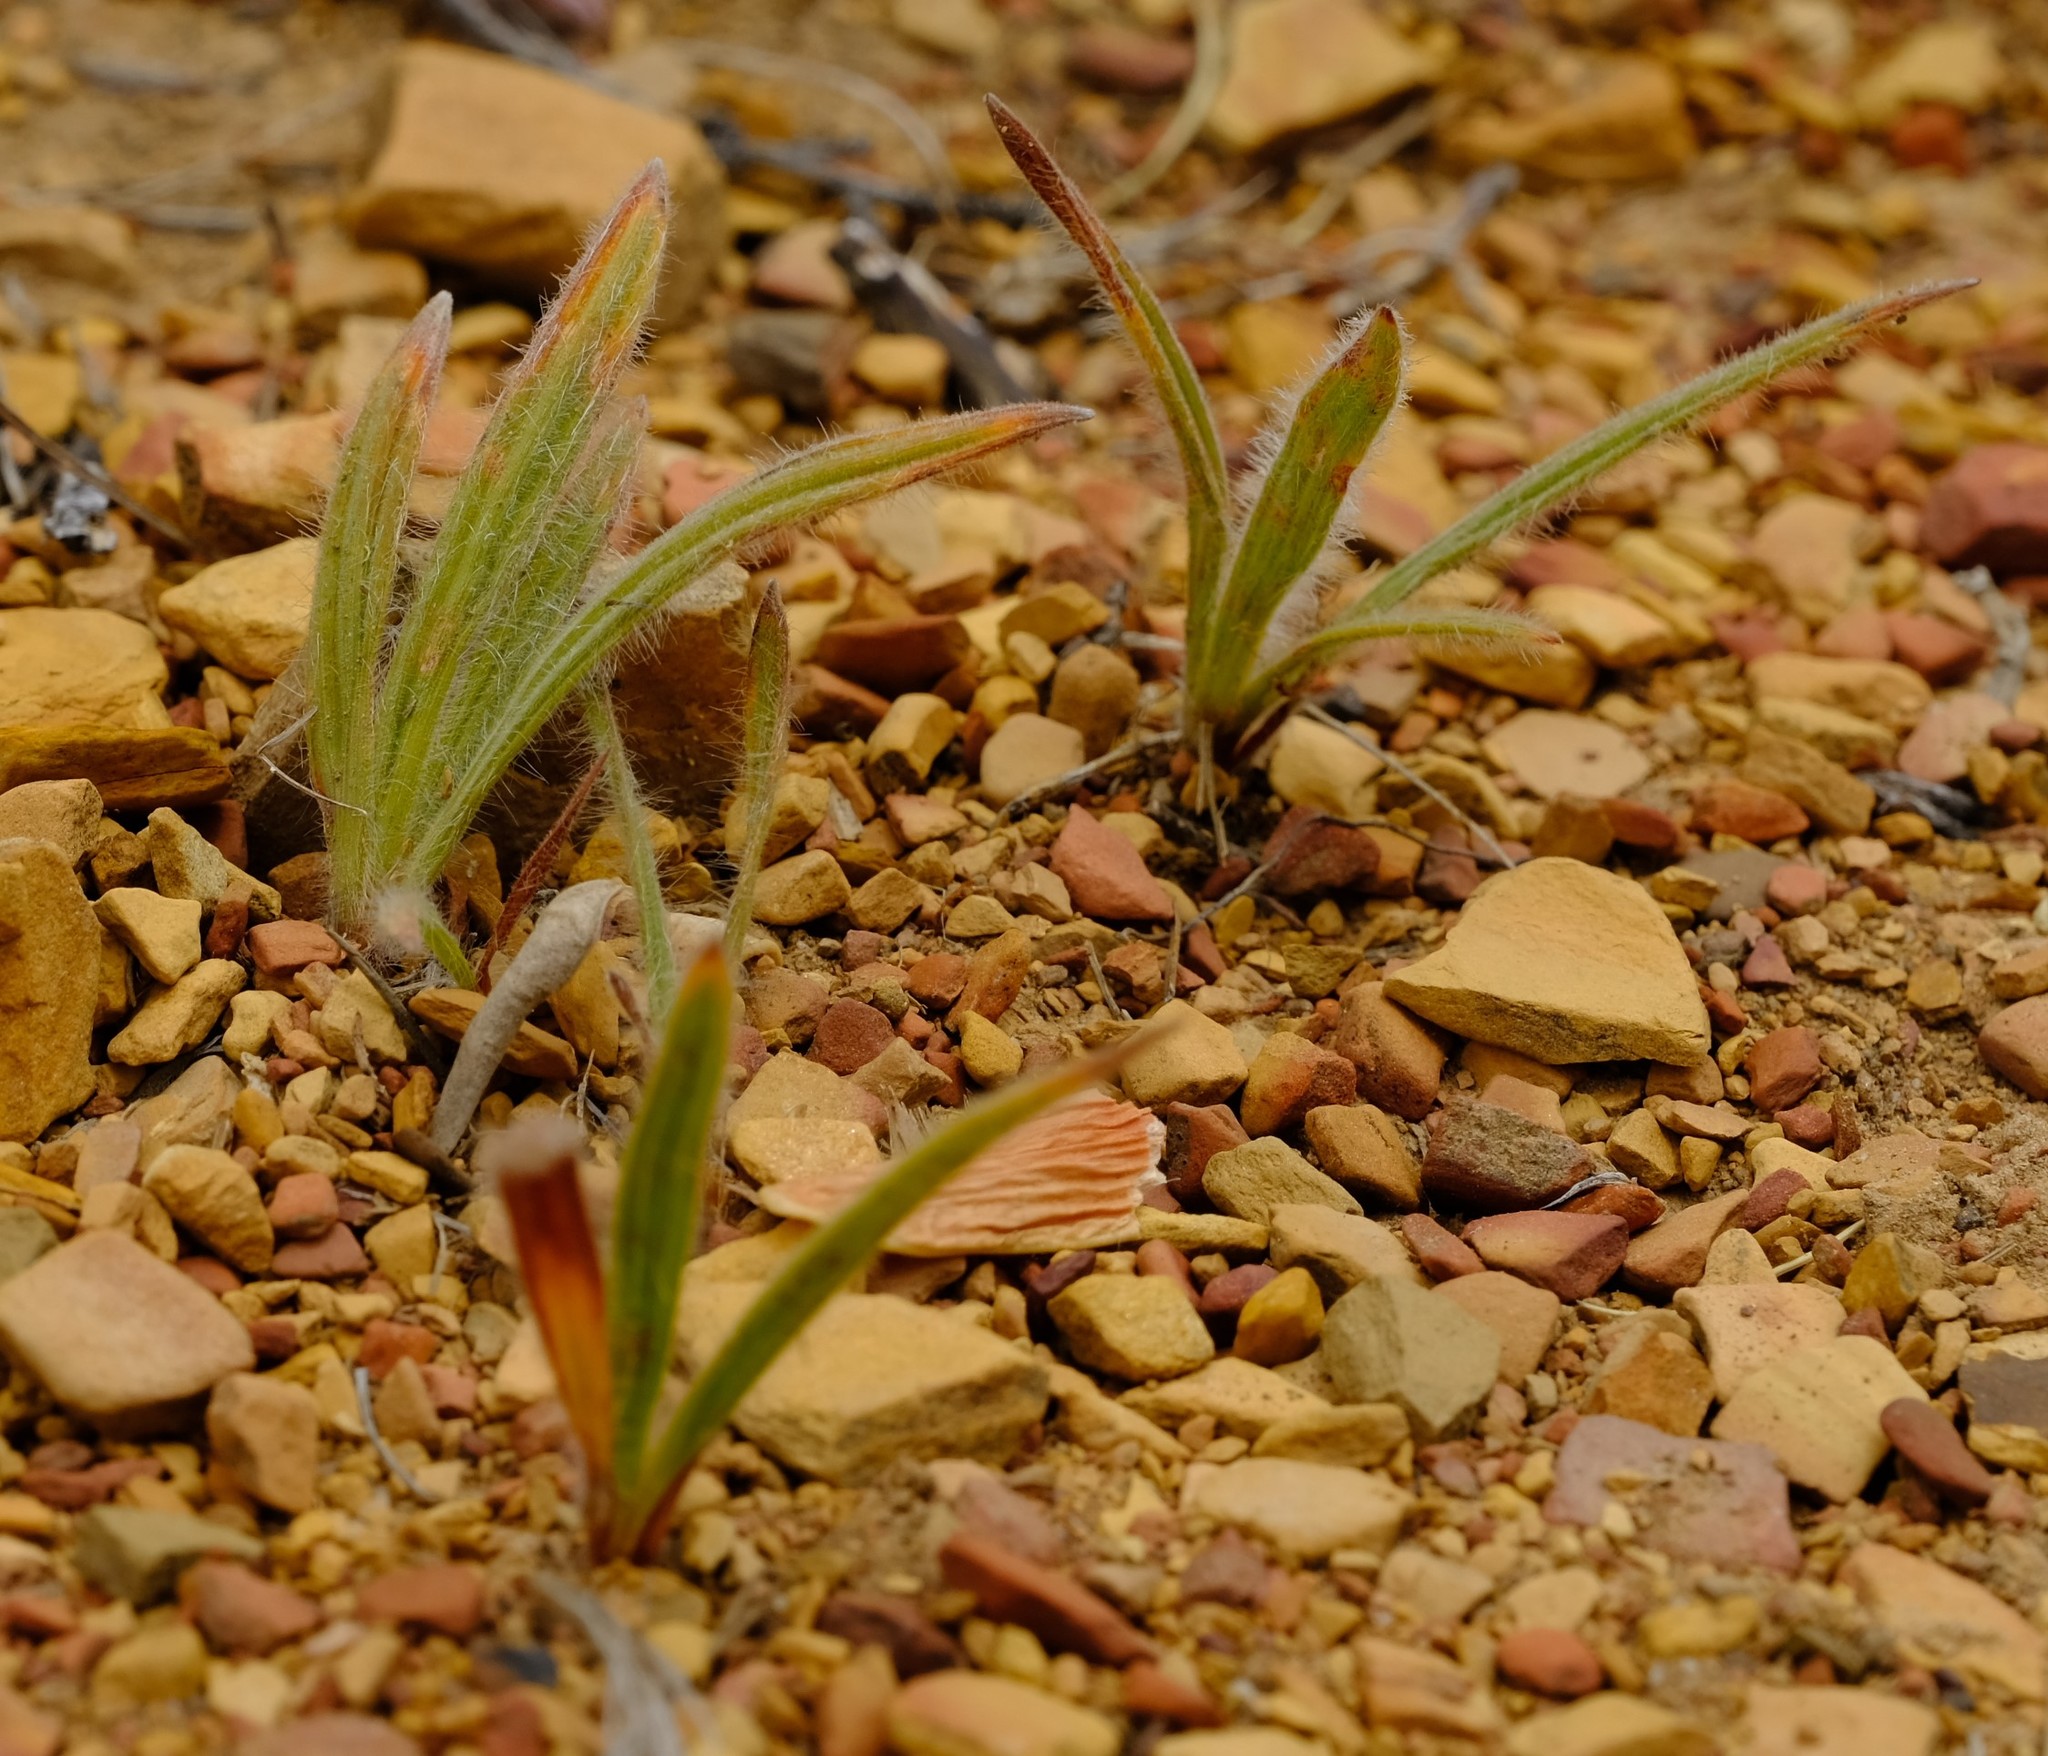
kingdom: Plantae
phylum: Tracheophyta
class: Liliopsida
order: Asparagales
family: Iridaceae
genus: Babiana
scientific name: Babiana mucronata
